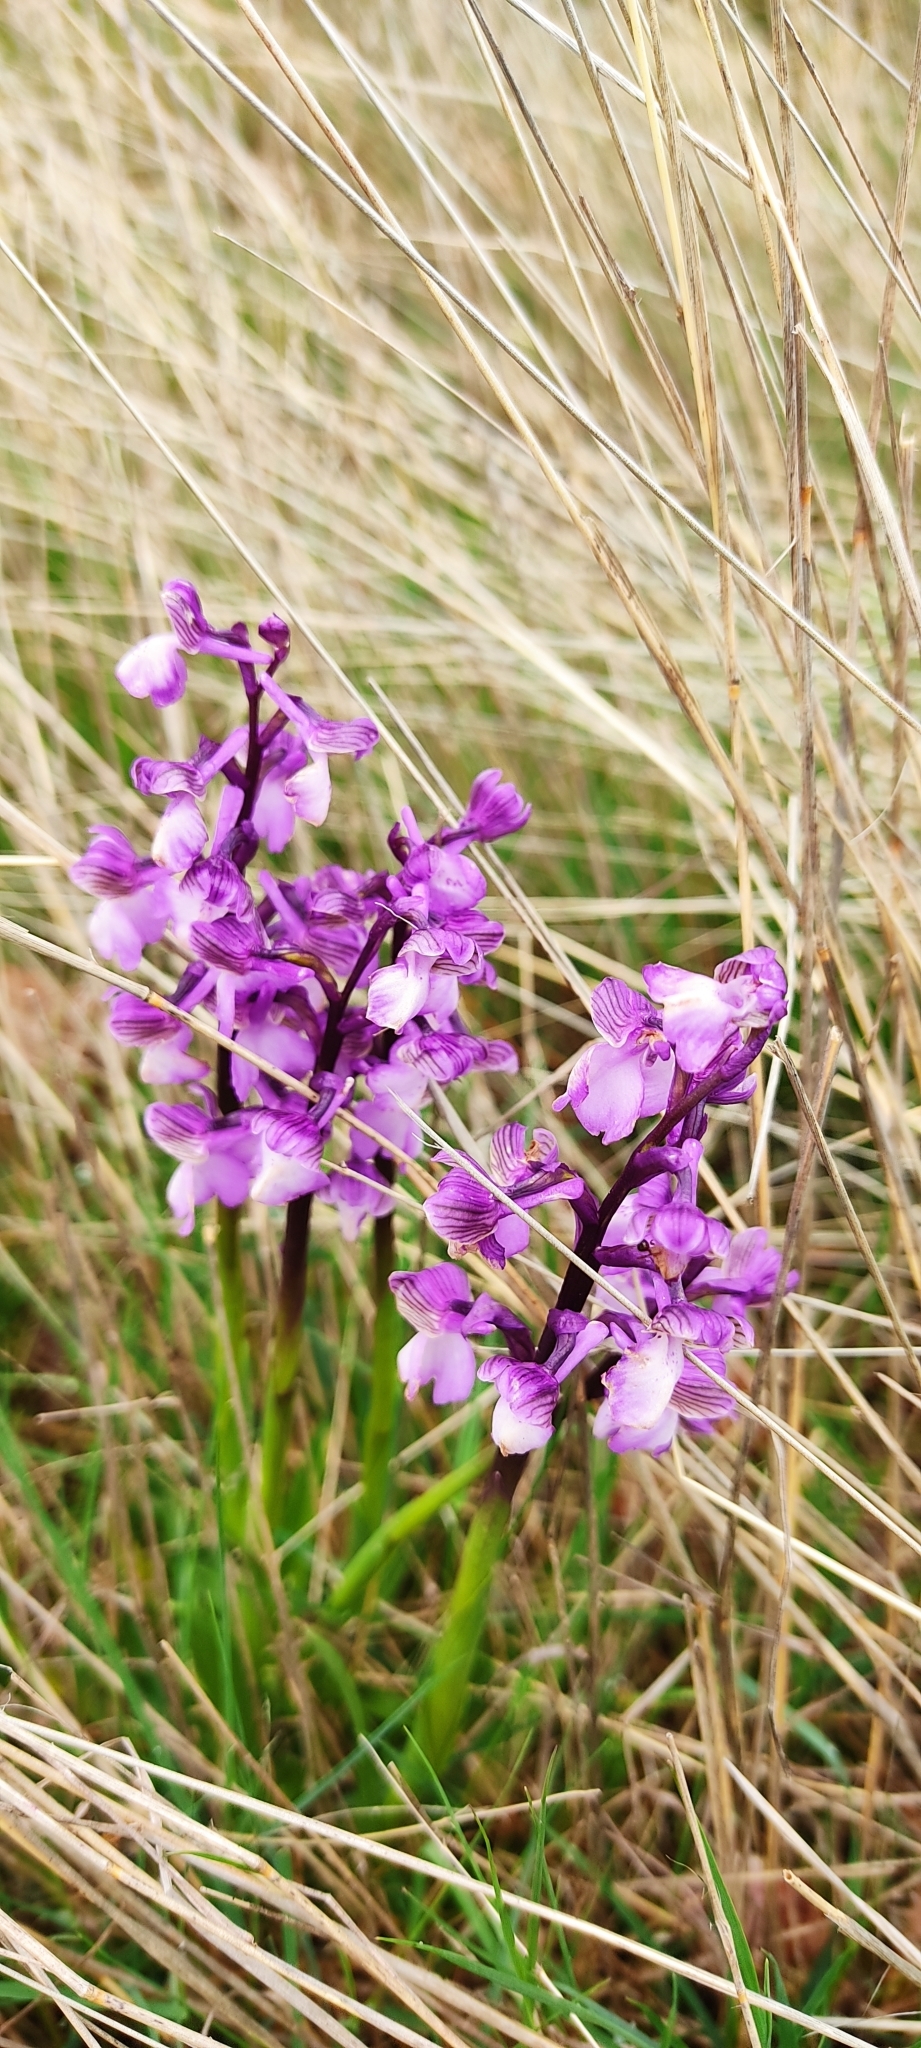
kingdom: Plantae
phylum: Tracheophyta
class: Liliopsida
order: Asparagales
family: Orchidaceae
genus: Anacamptis
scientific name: Anacamptis morio
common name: Green-winged orchid
